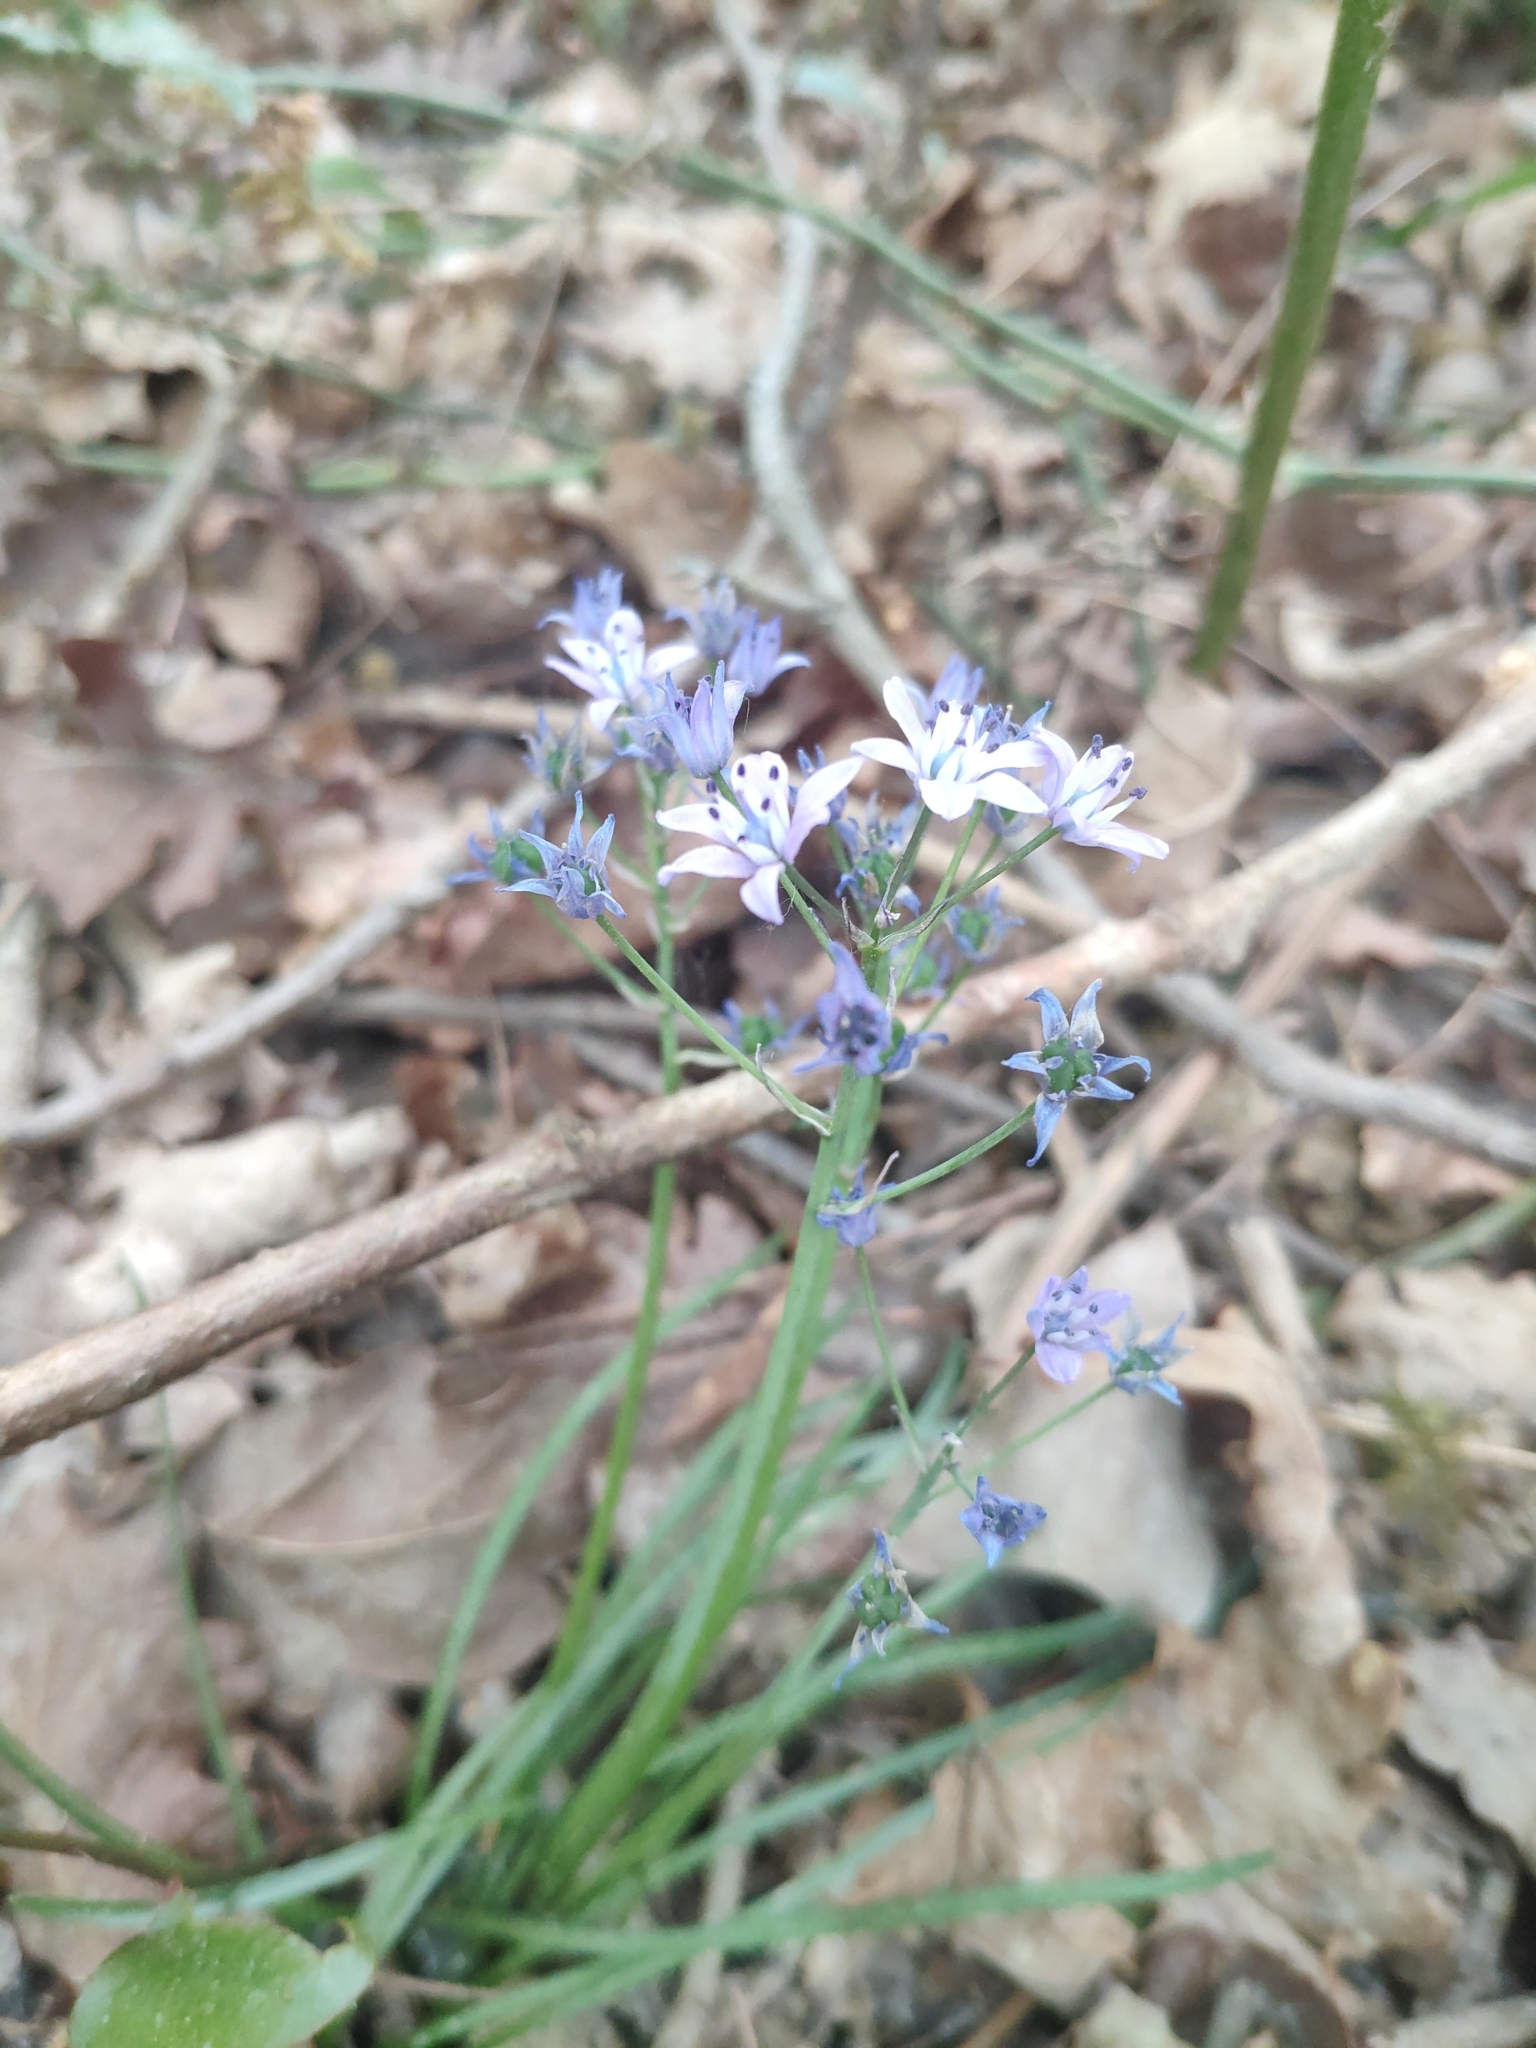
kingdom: Plantae
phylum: Tracheophyta
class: Liliopsida
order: Asparagales
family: Asparagaceae
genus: Scilla
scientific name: Scilla verna
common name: Spring squill
